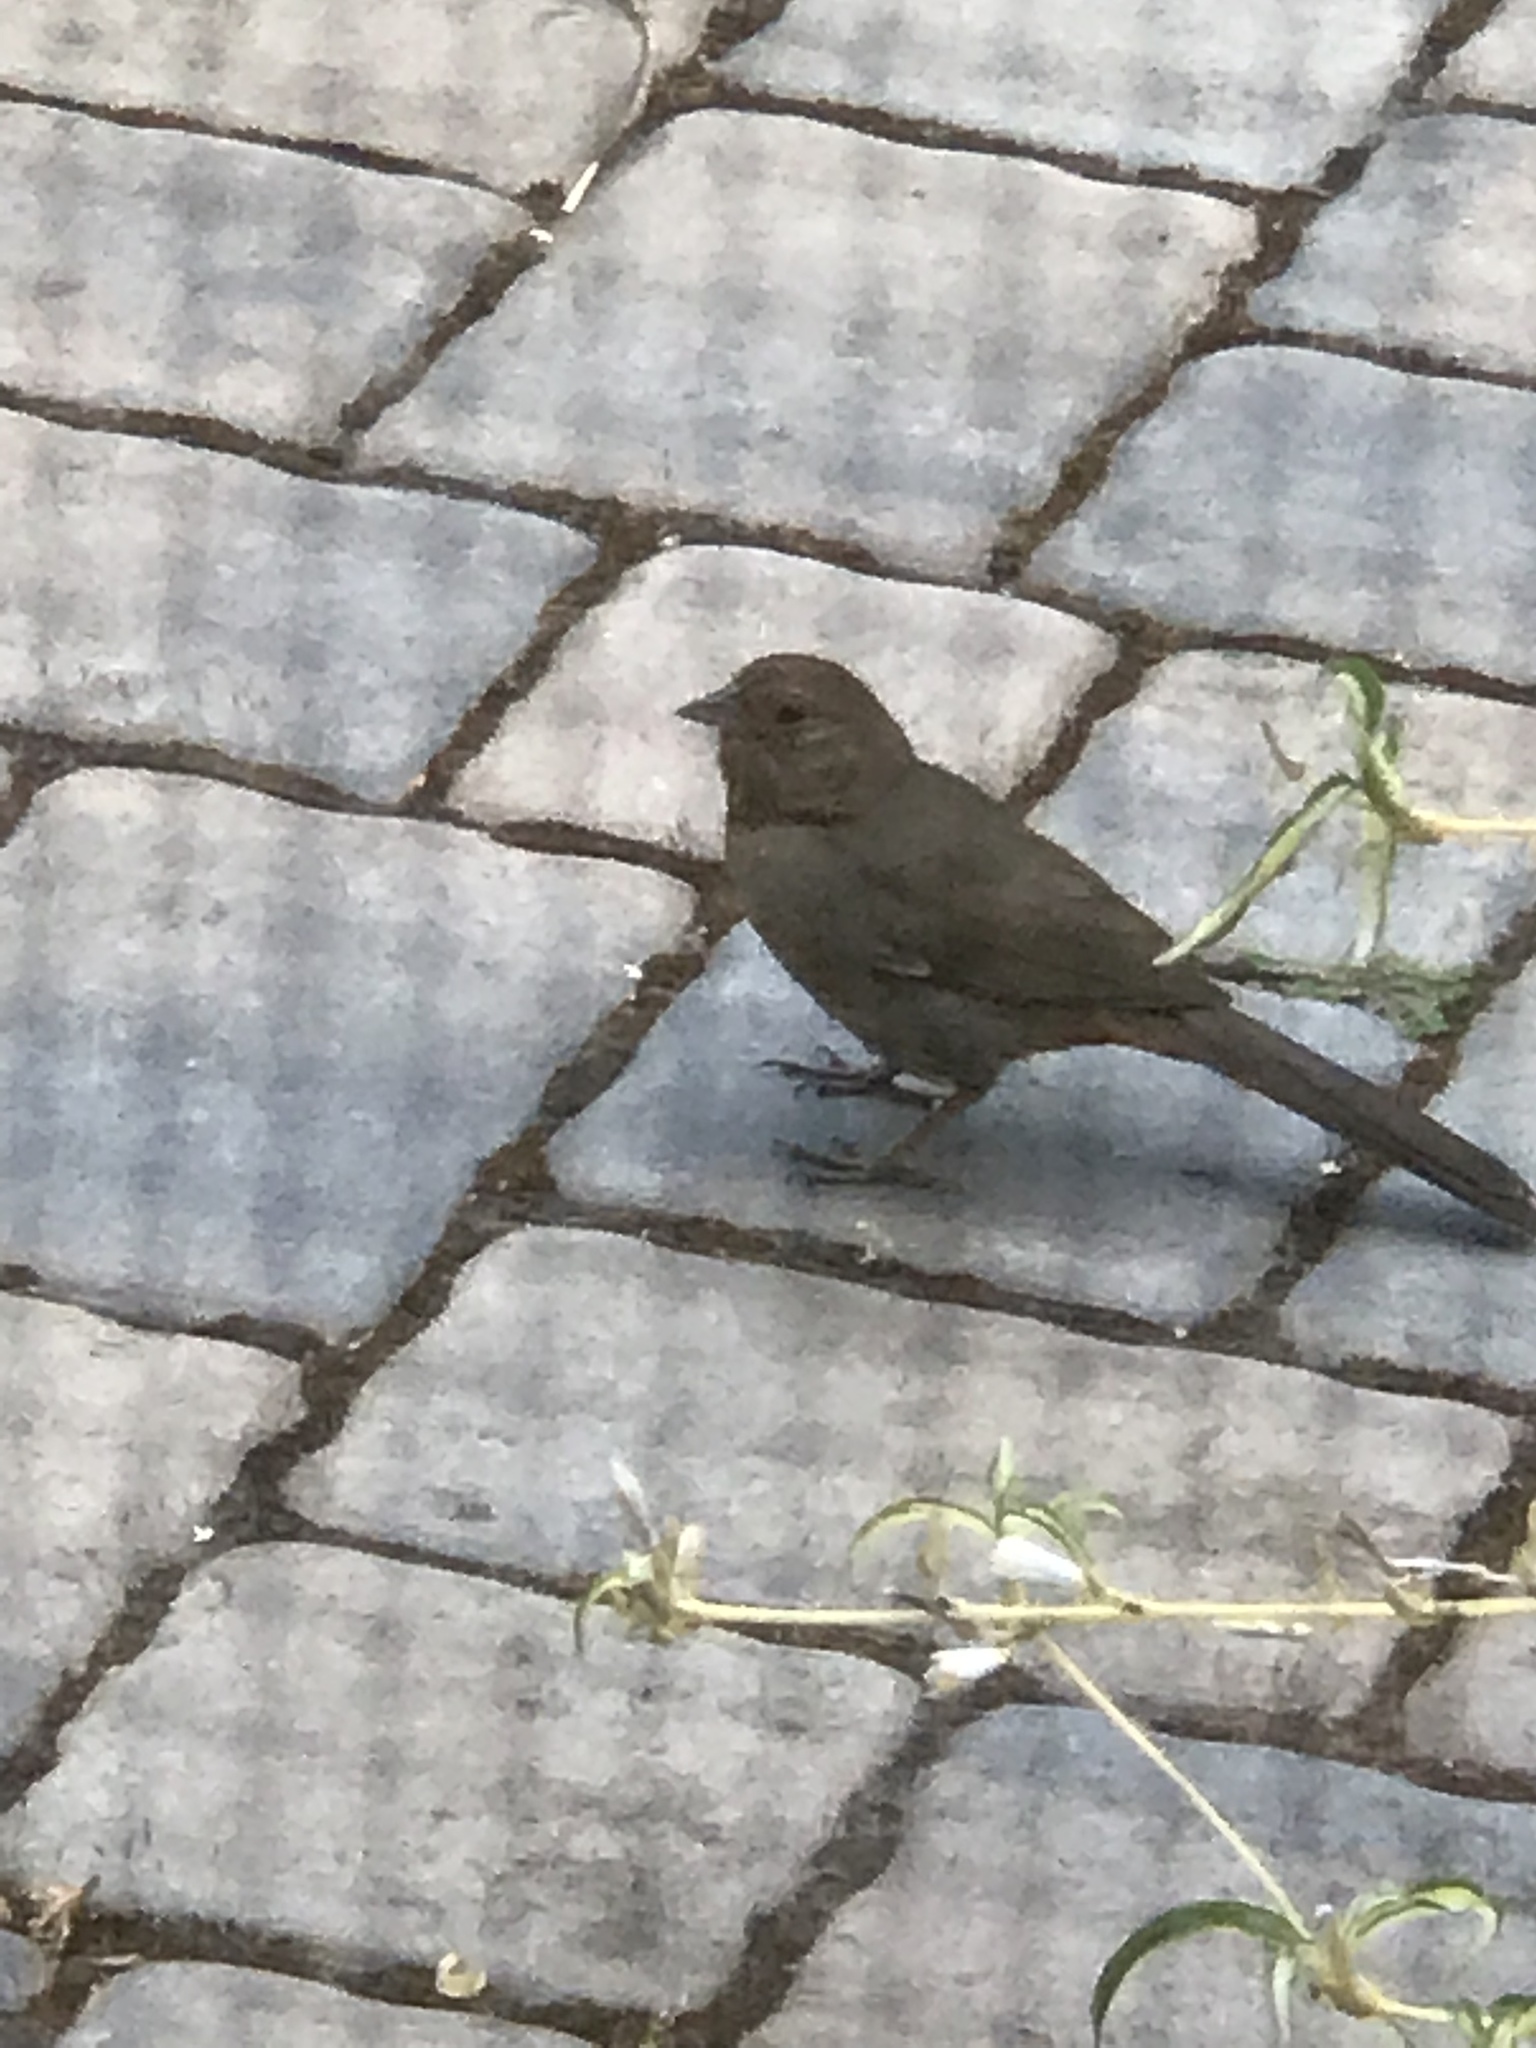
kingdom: Animalia
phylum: Chordata
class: Aves
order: Passeriformes
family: Passerellidae
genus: Melozone
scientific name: Melozone crissalis
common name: California towhee
